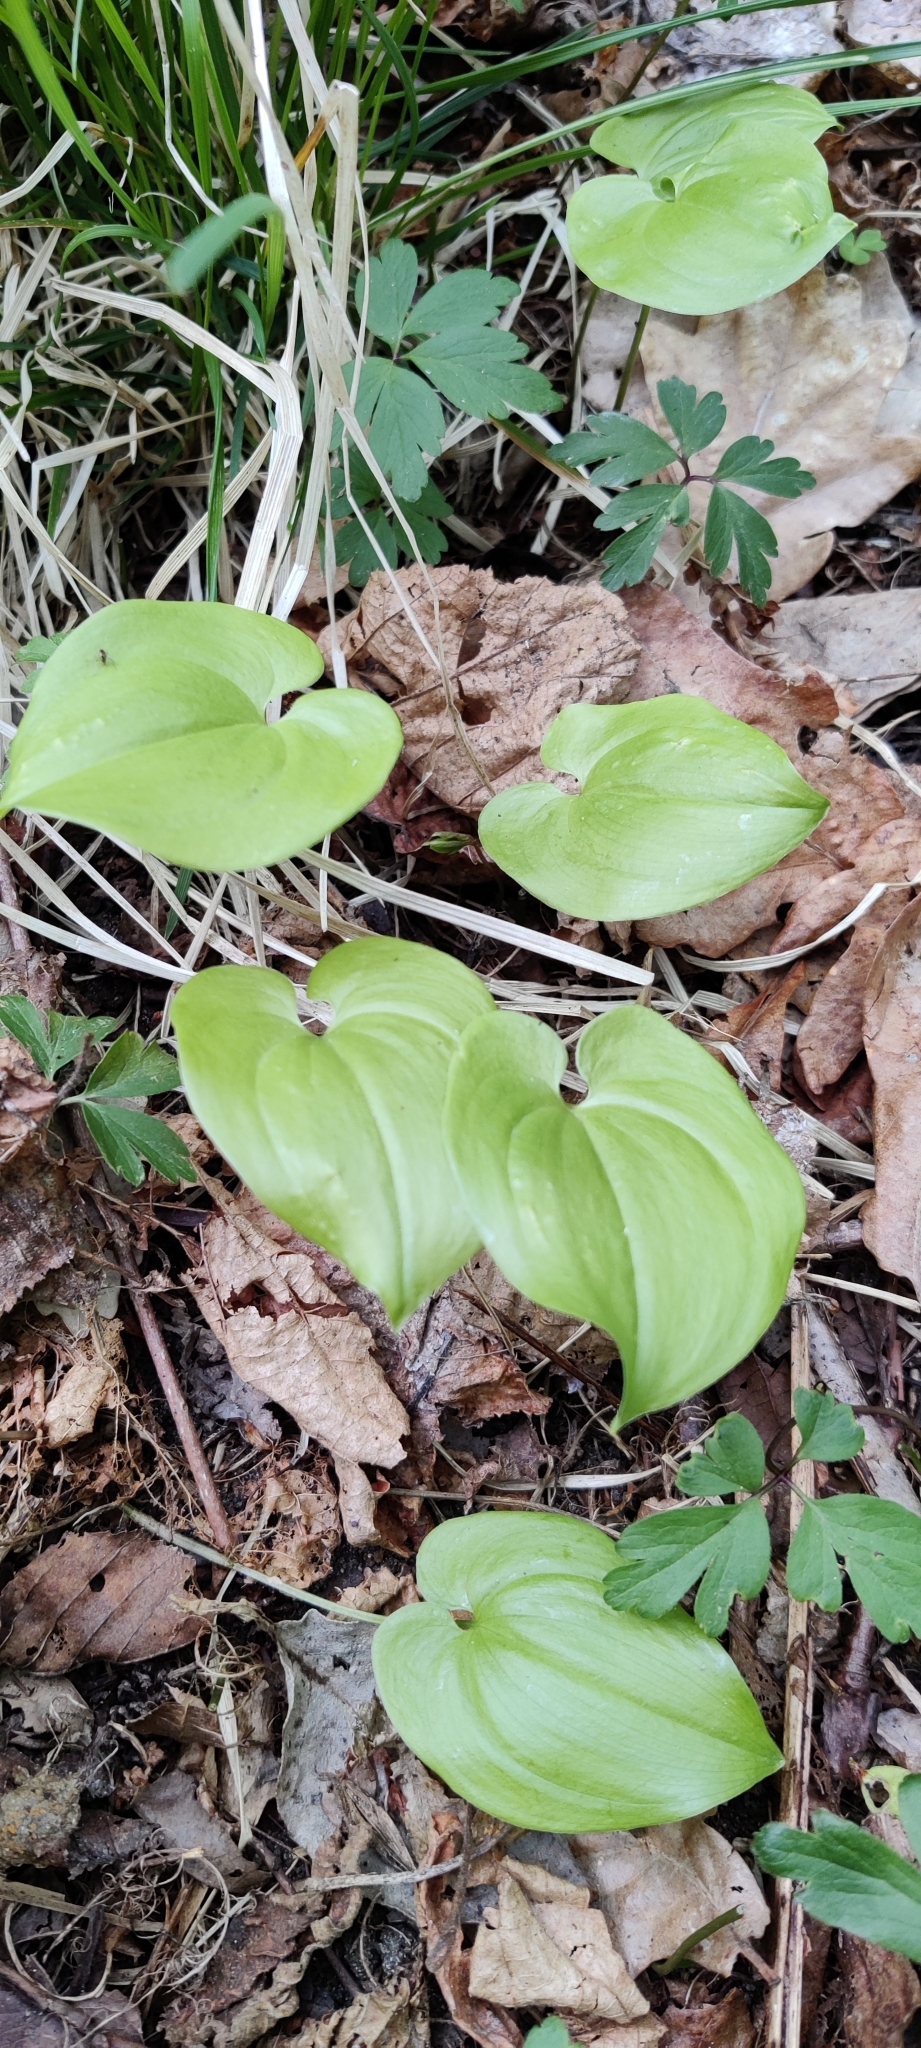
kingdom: Plantae
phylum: Tracheophyta
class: Liliopsida
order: Asparagales
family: Asparagaceae
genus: Maianthemum
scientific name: Maianthemum bifolium
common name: May lily
